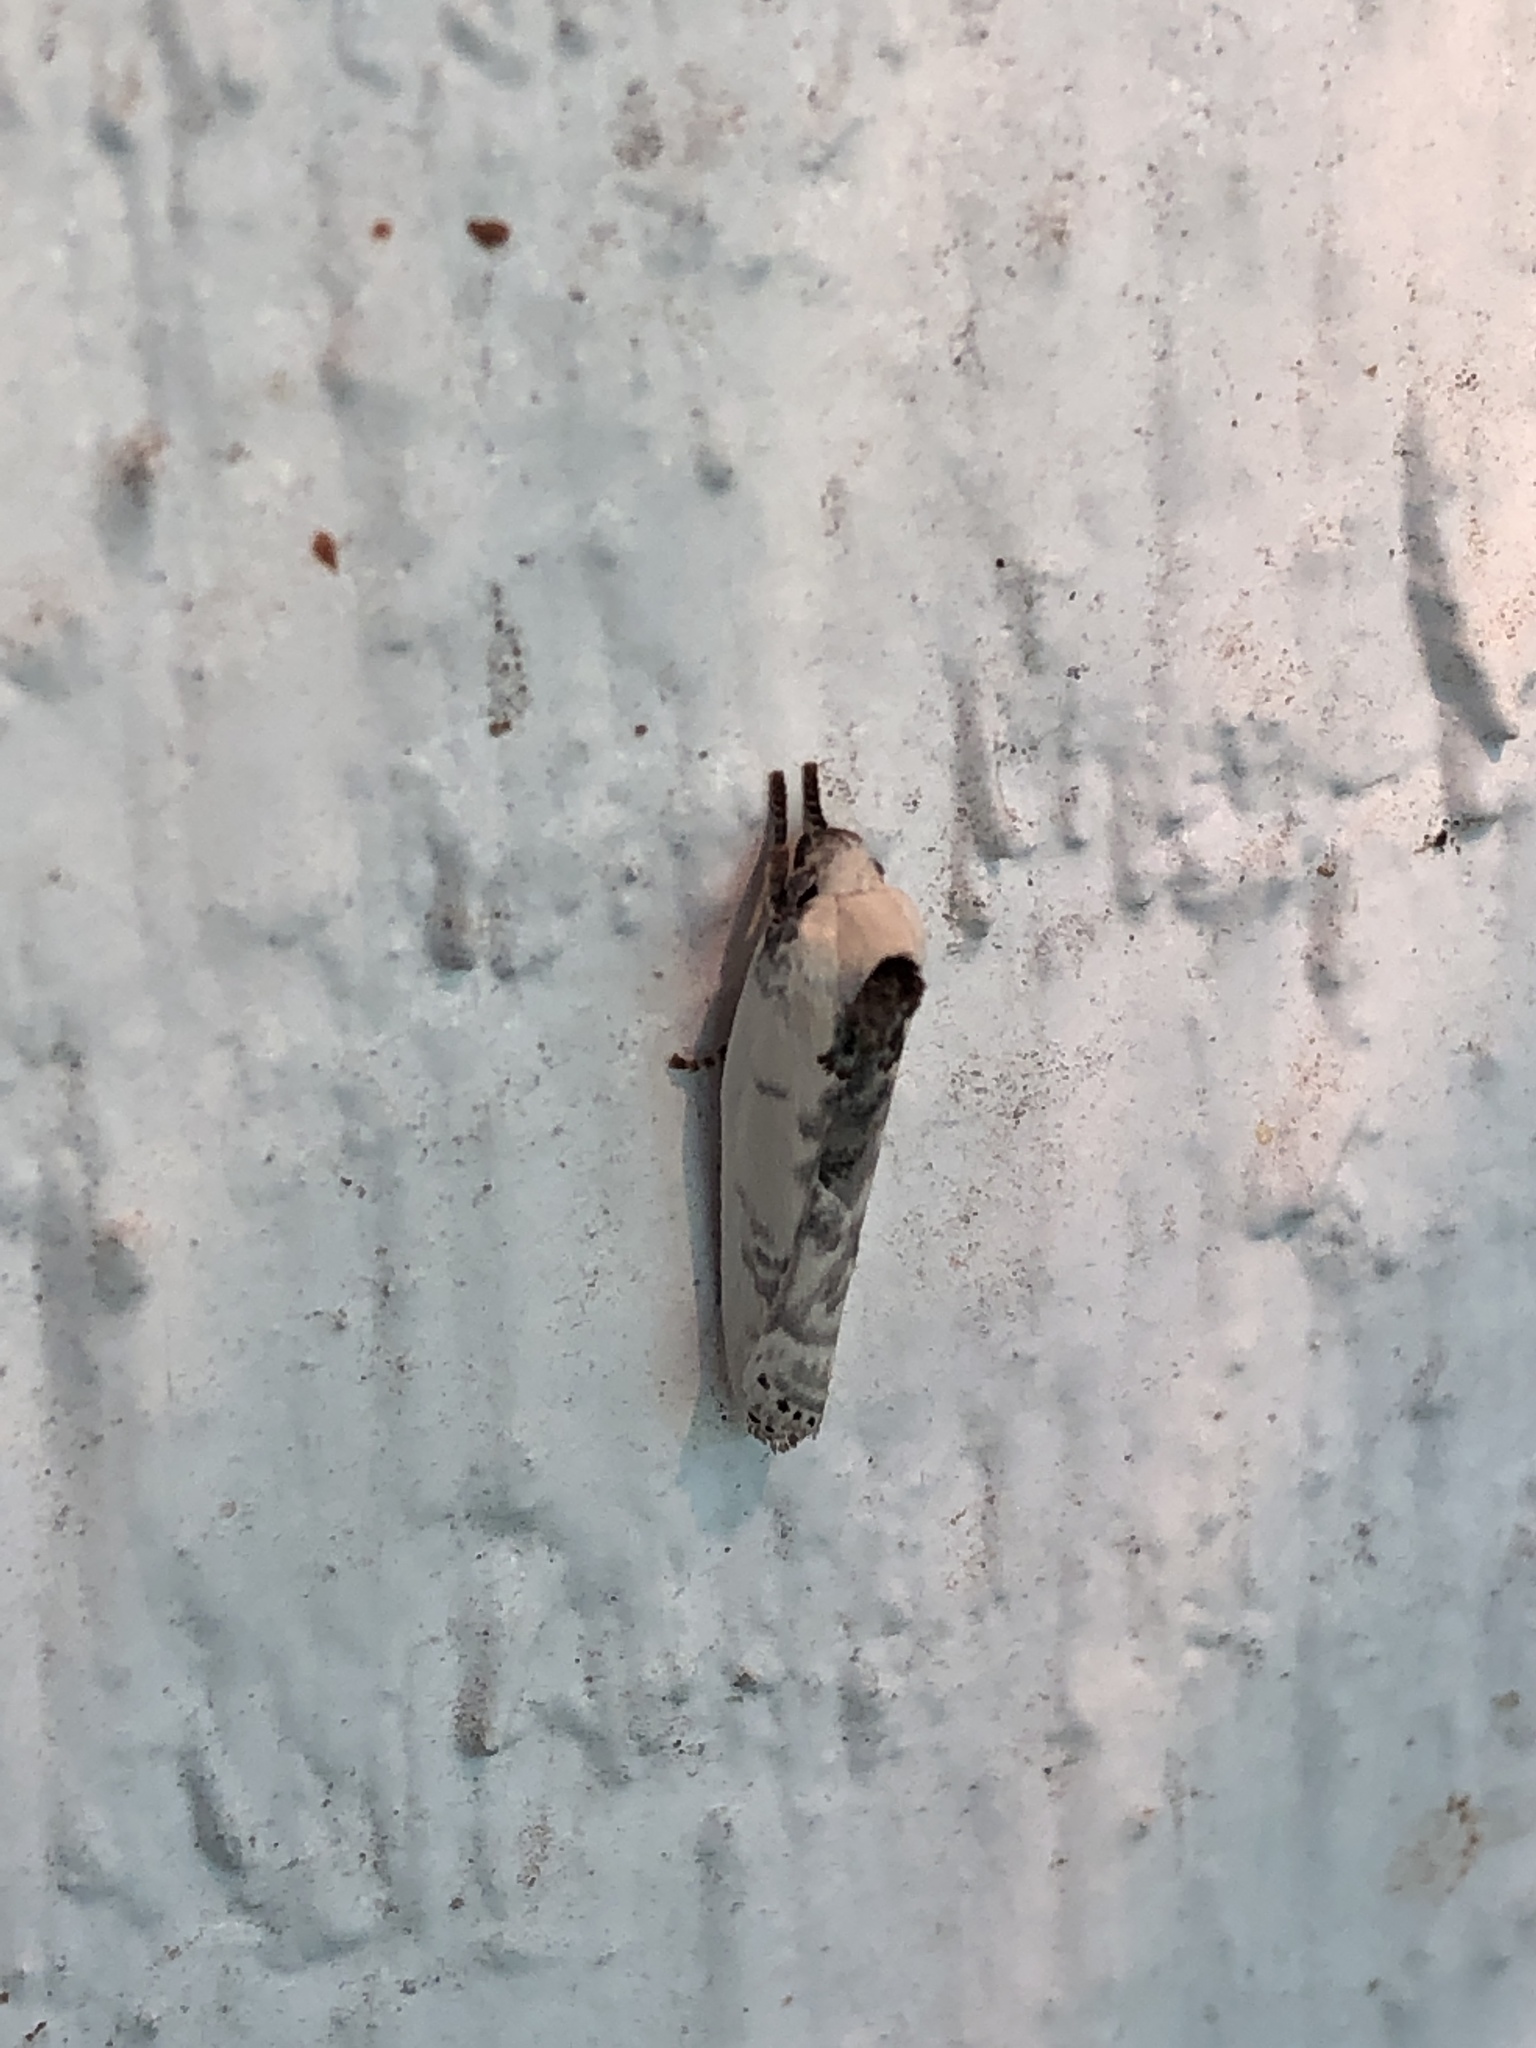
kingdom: Animalia
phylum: Arthropoda
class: Insecta
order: Lepidoptera
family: Depressariidae
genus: Antaeotricha
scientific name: Antaeotricha leucillana
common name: Pale gray bird-dropping moth
